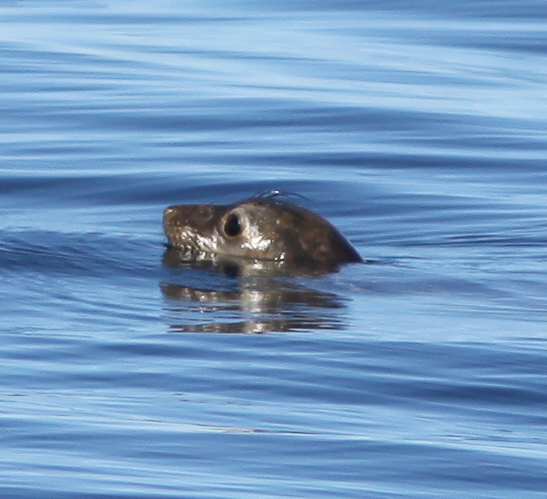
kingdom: Animalia
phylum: Chordata
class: Mammalia
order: Carnivora
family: Phocidae
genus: Mirounga
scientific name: Mirounga angustirostris
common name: Northern elephant seal
